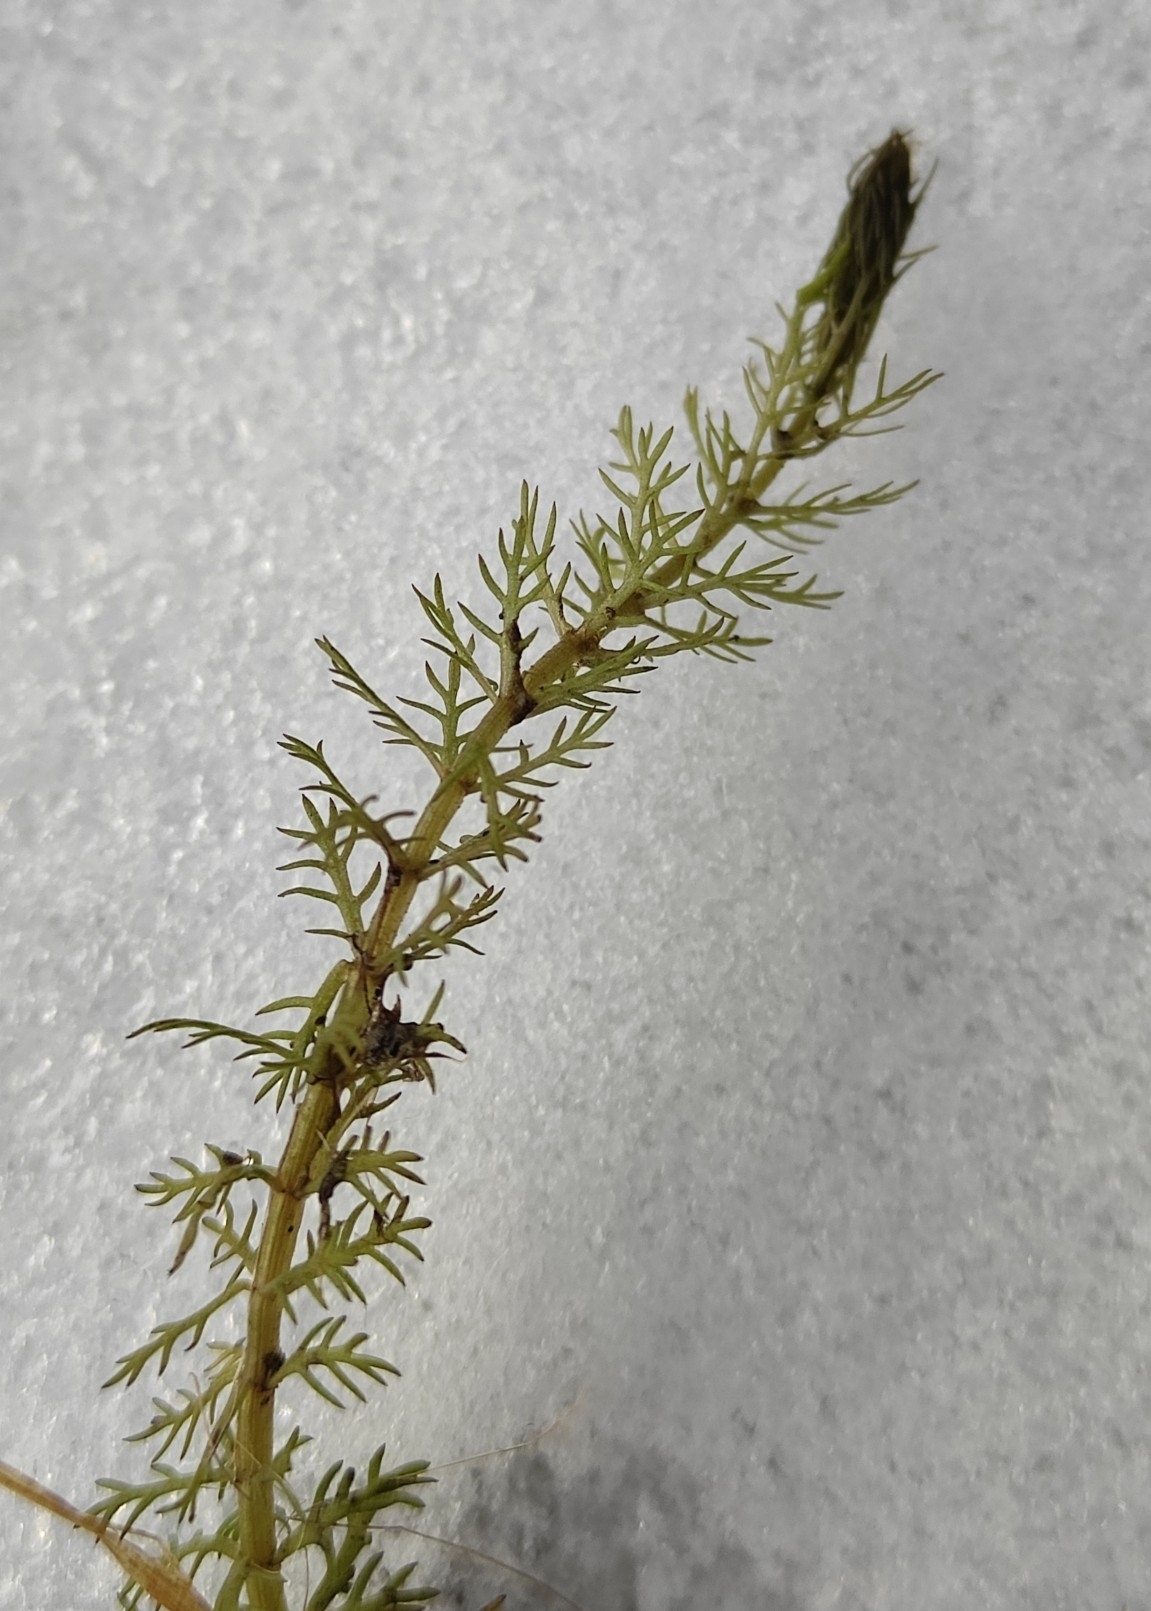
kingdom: Plantae
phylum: Tracheophyta
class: Magnoliopsida
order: Saxifragales
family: Haloragaceae
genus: Myriophyllum
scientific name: Myriophyllum verticillatum
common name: Whorled water-milfoil
